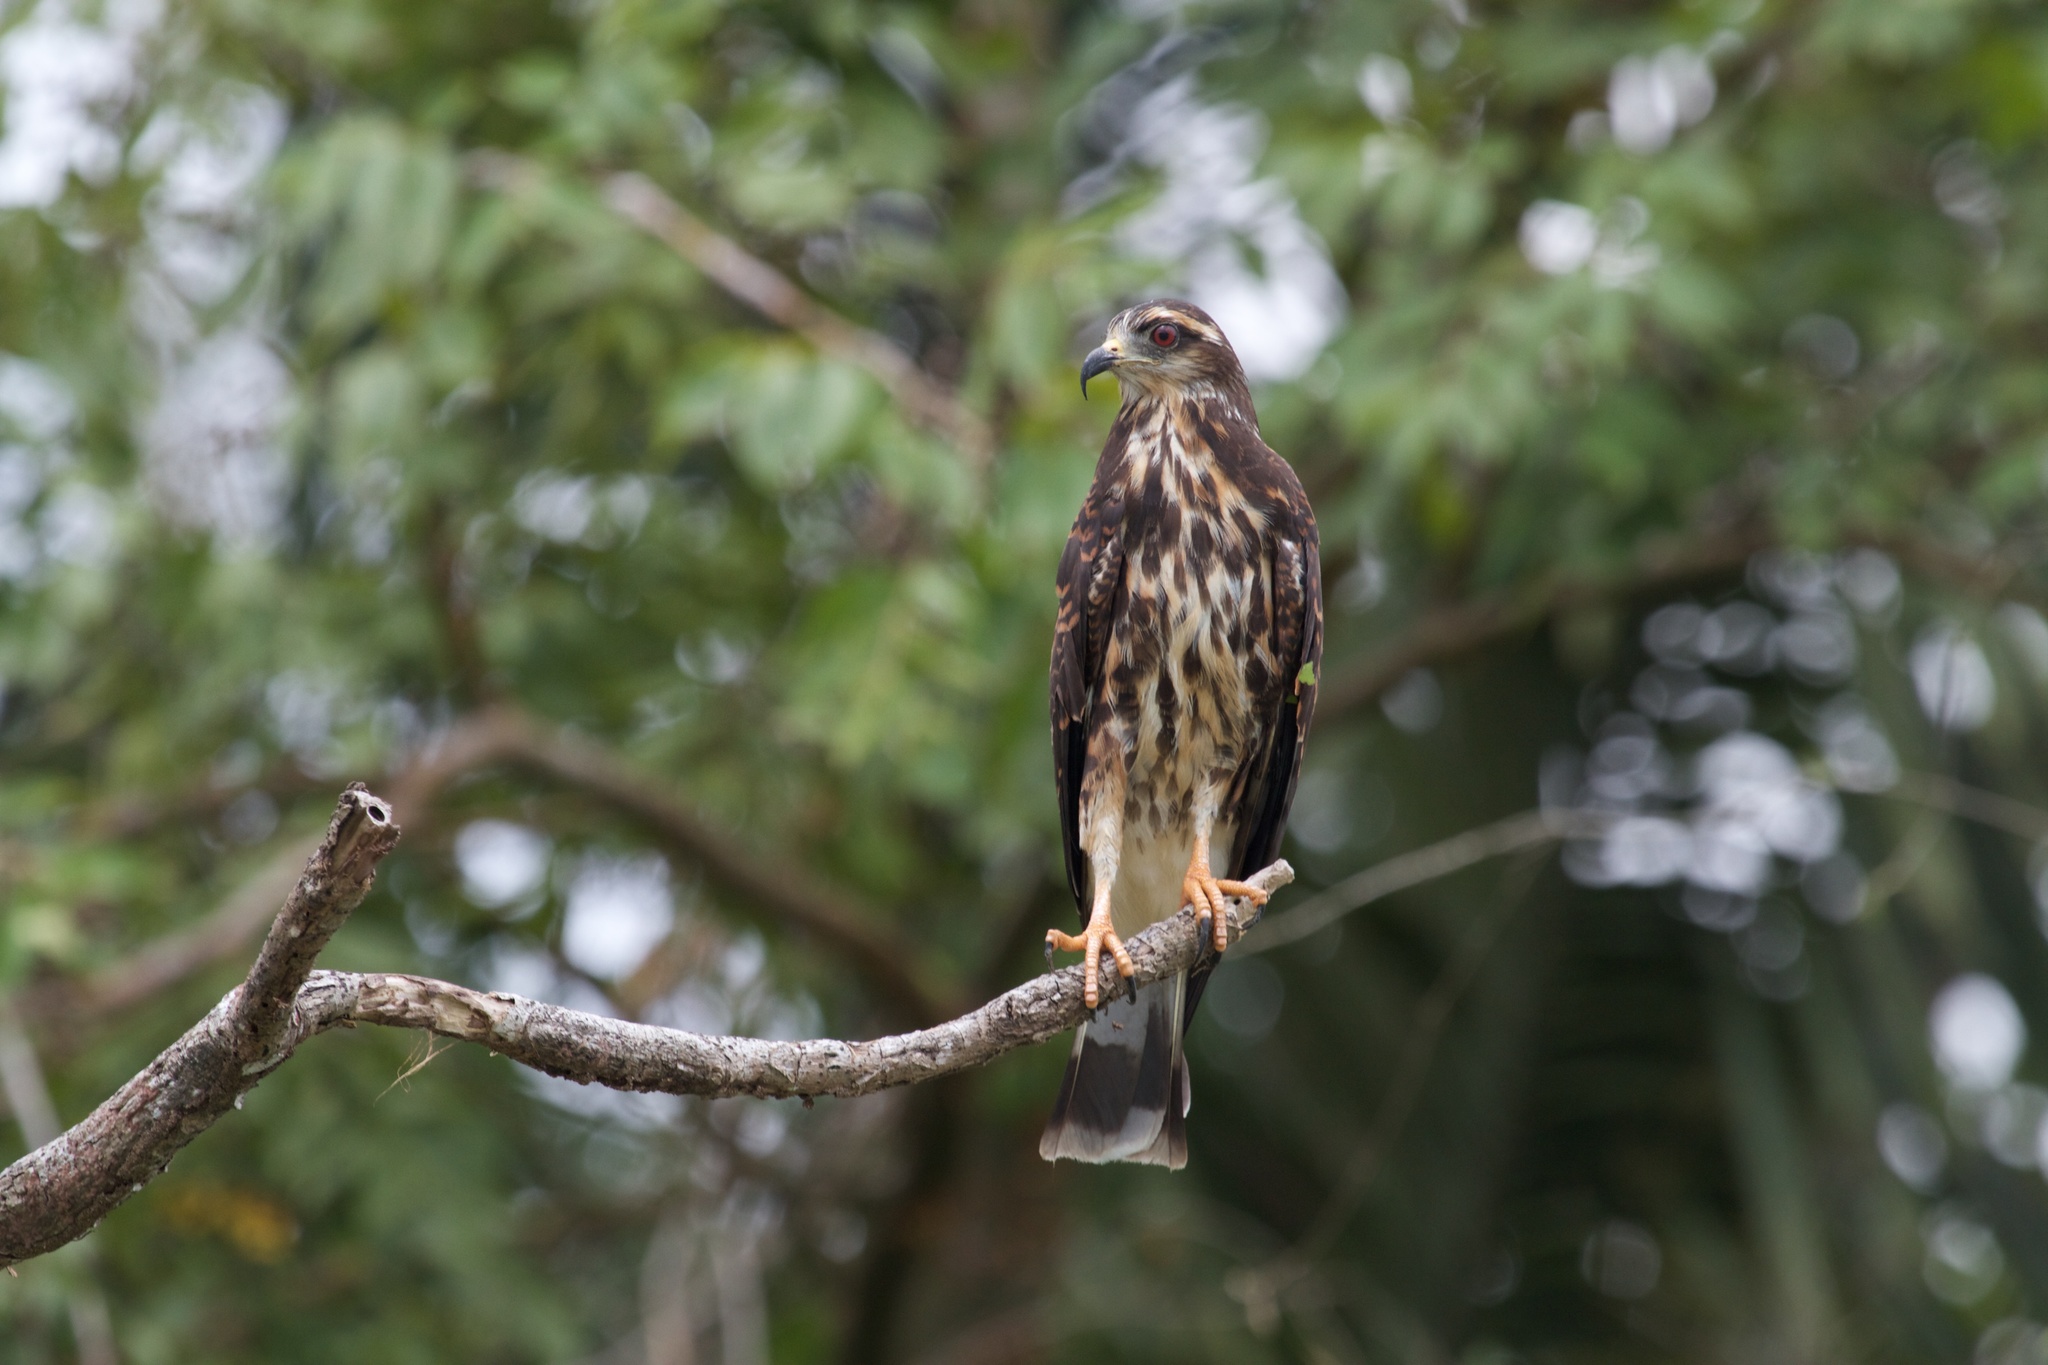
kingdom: Animalia
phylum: Chordata
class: Aves
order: Accipitriformes
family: Accipitridae
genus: Rostrhamus
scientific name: Rostrhamus sociabilis
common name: Snail kite
